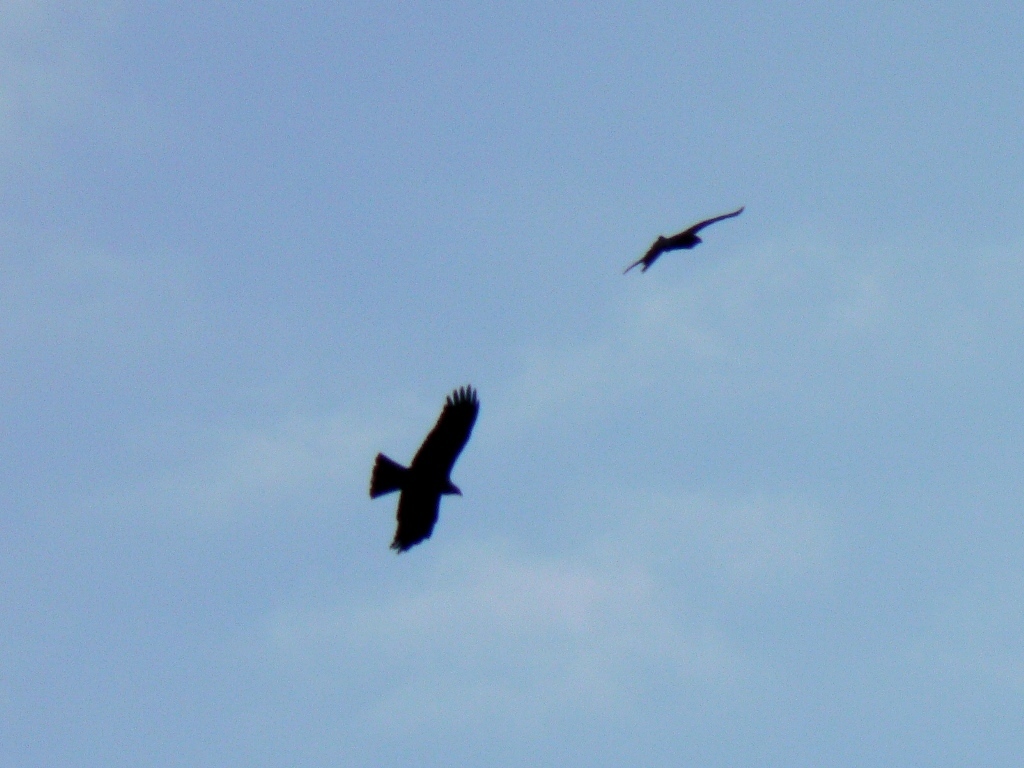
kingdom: Animalia
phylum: Chordata
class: Aves
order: Accipitriformes
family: Accipitridae
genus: Milvus
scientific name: Milvus migrans
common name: Black kite
